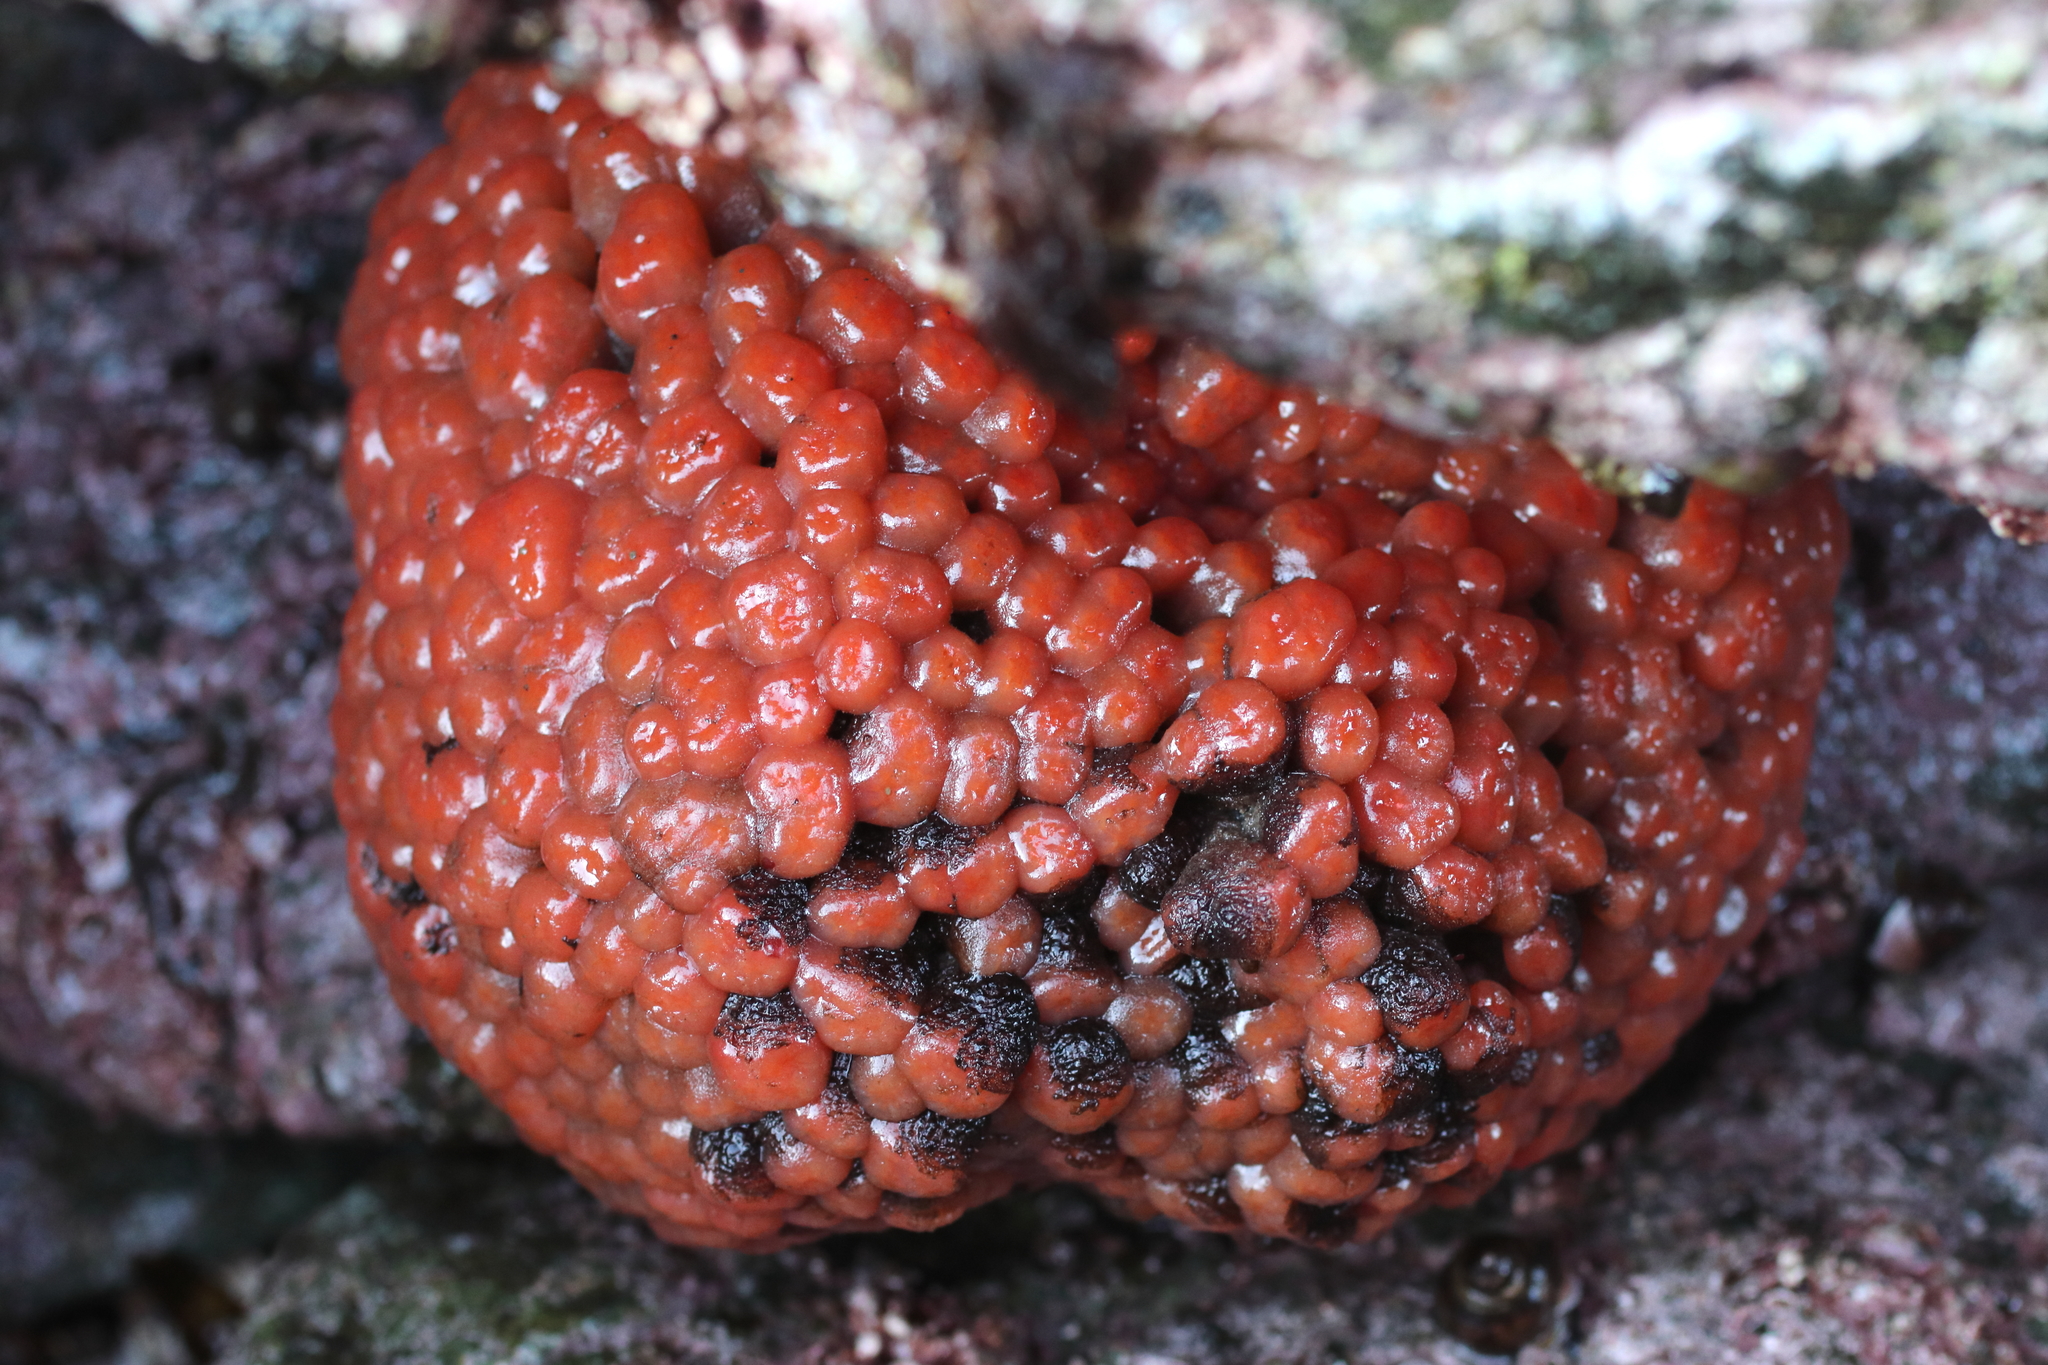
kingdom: Animalia
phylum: Chordata
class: Ascidiacea
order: Aplousobranchia
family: Polyclinidae
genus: Aplidium
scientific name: Aplidium coei
